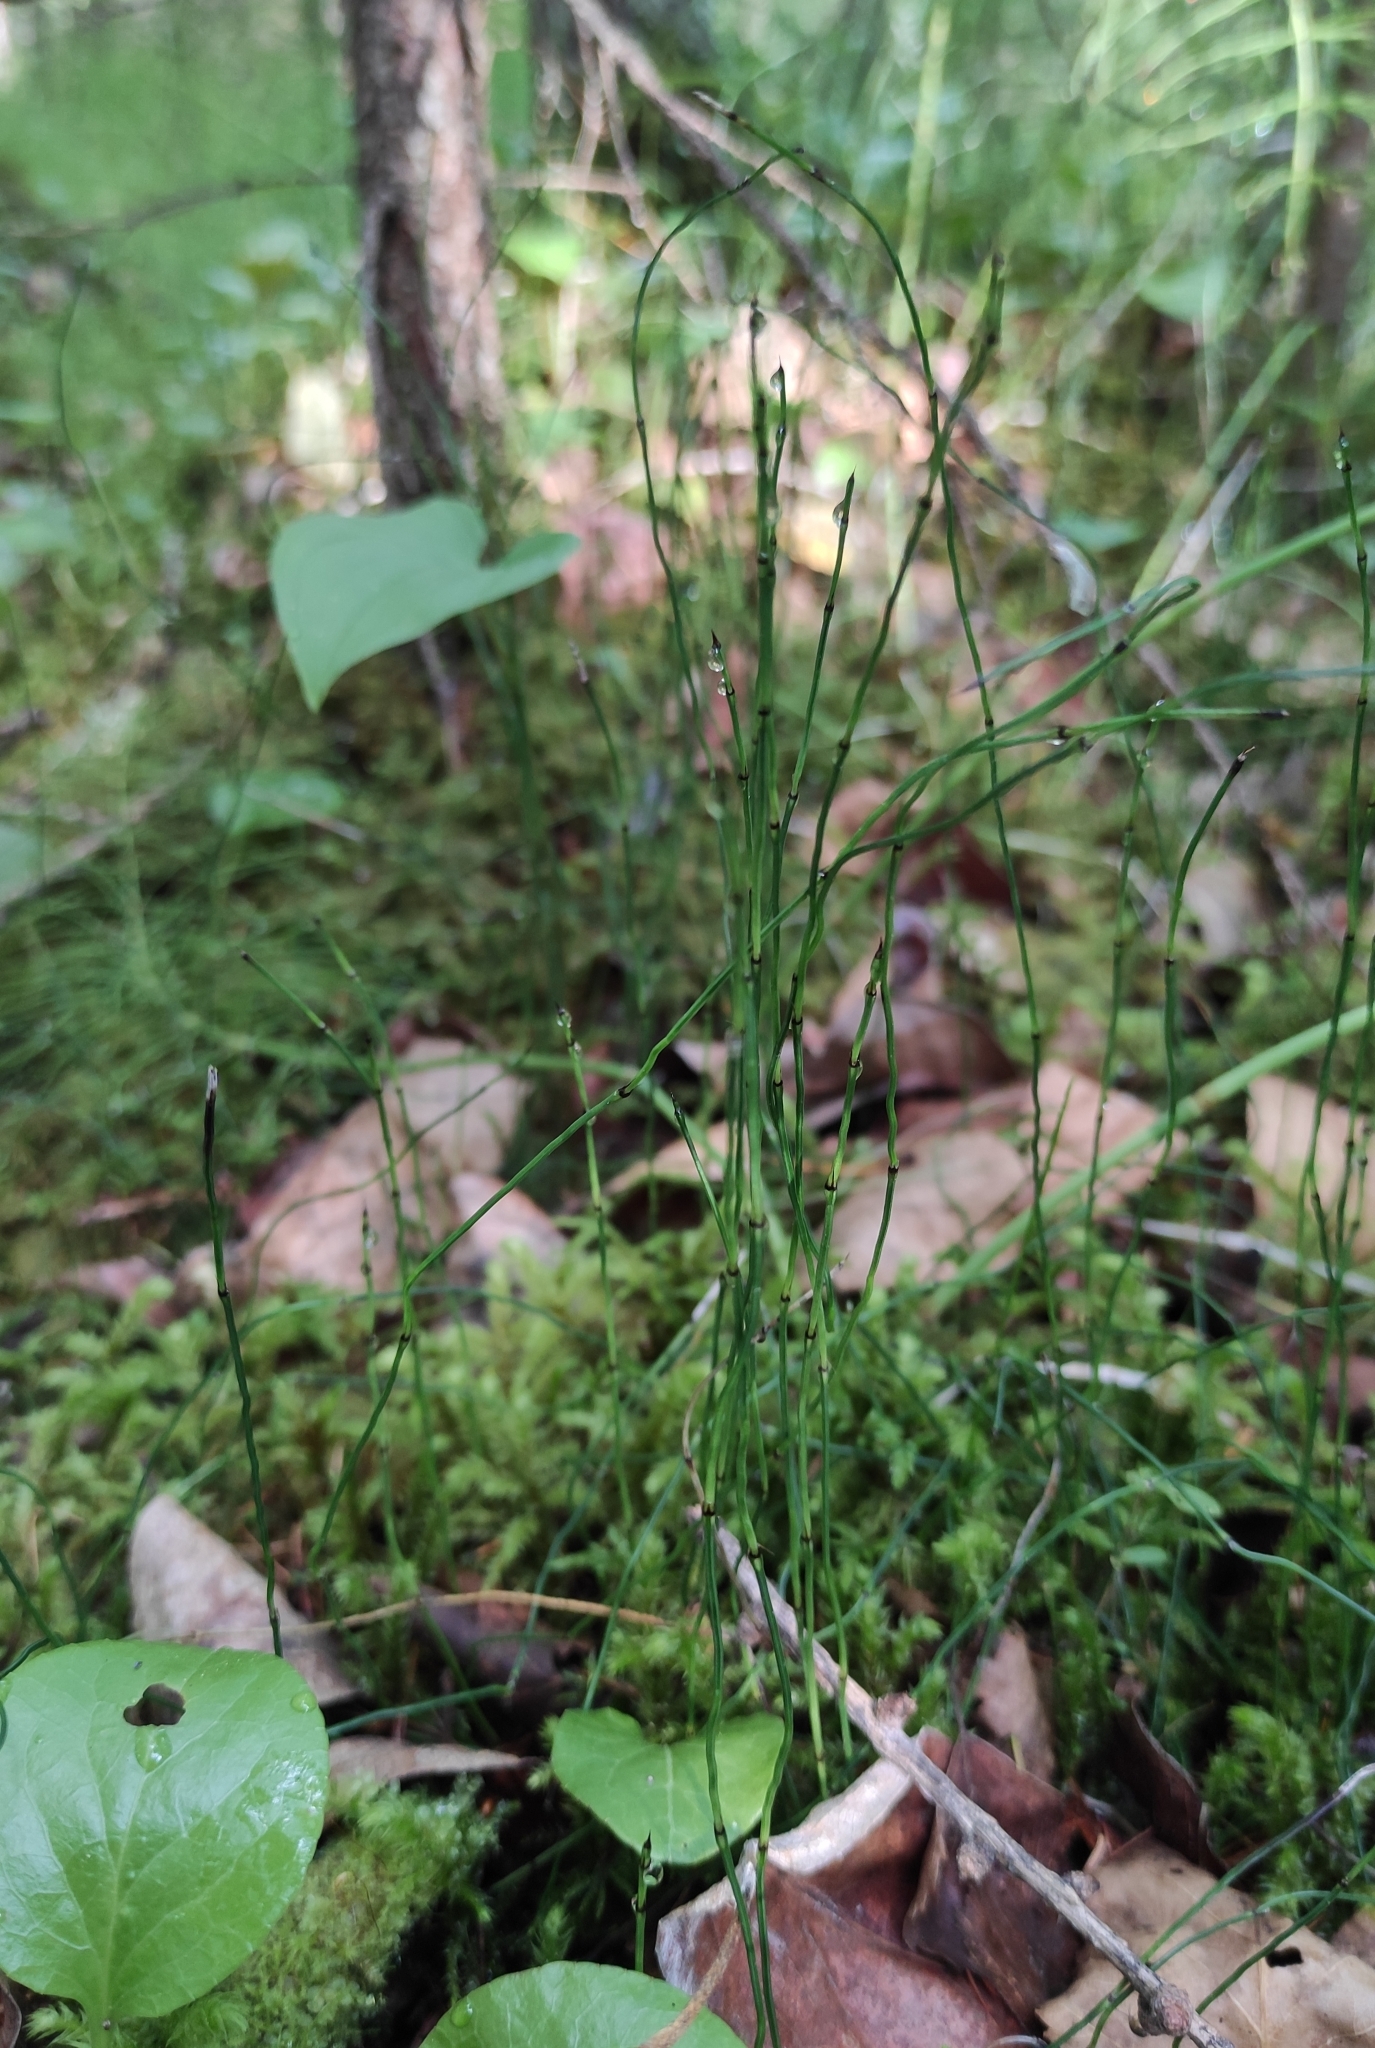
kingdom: Plantae
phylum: Tracheophyta
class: Polypodiopsida
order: Equisetales
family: Equisetaceae
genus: Equisetum
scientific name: Equisetum scirpoides
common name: Delicate horsetail
